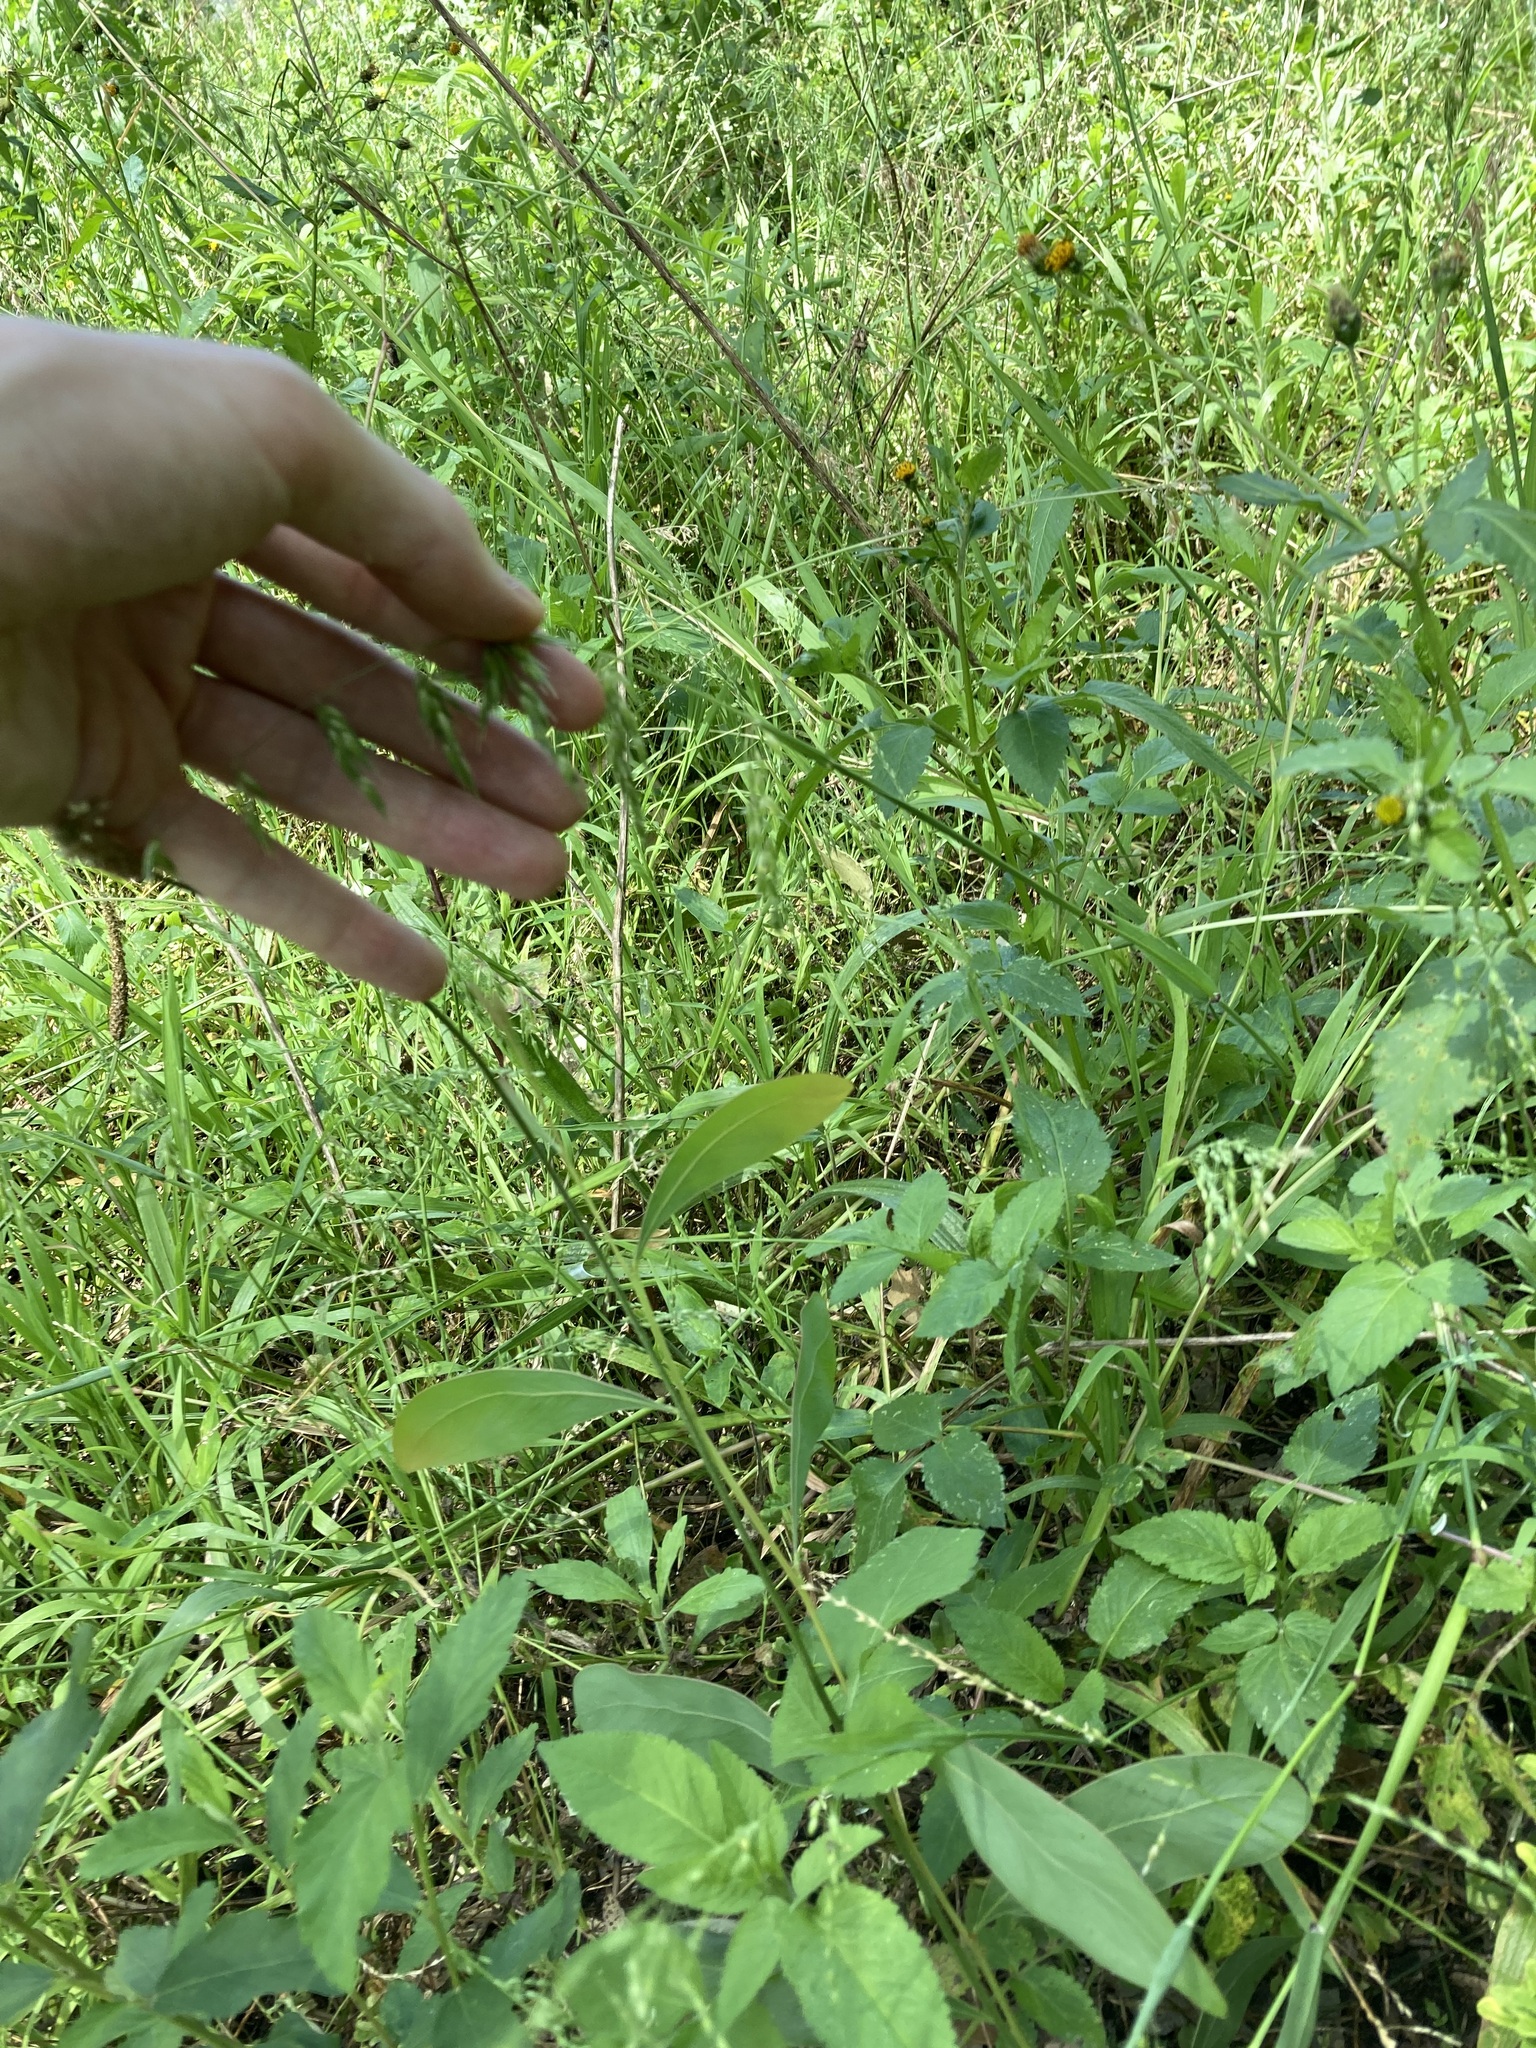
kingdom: Plantae
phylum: Tracheophyta
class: Liliopsida
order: Poales
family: Poaceae
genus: Ehrharta
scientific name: Ehrharta longiflora
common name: Longflowered veldtgrass
